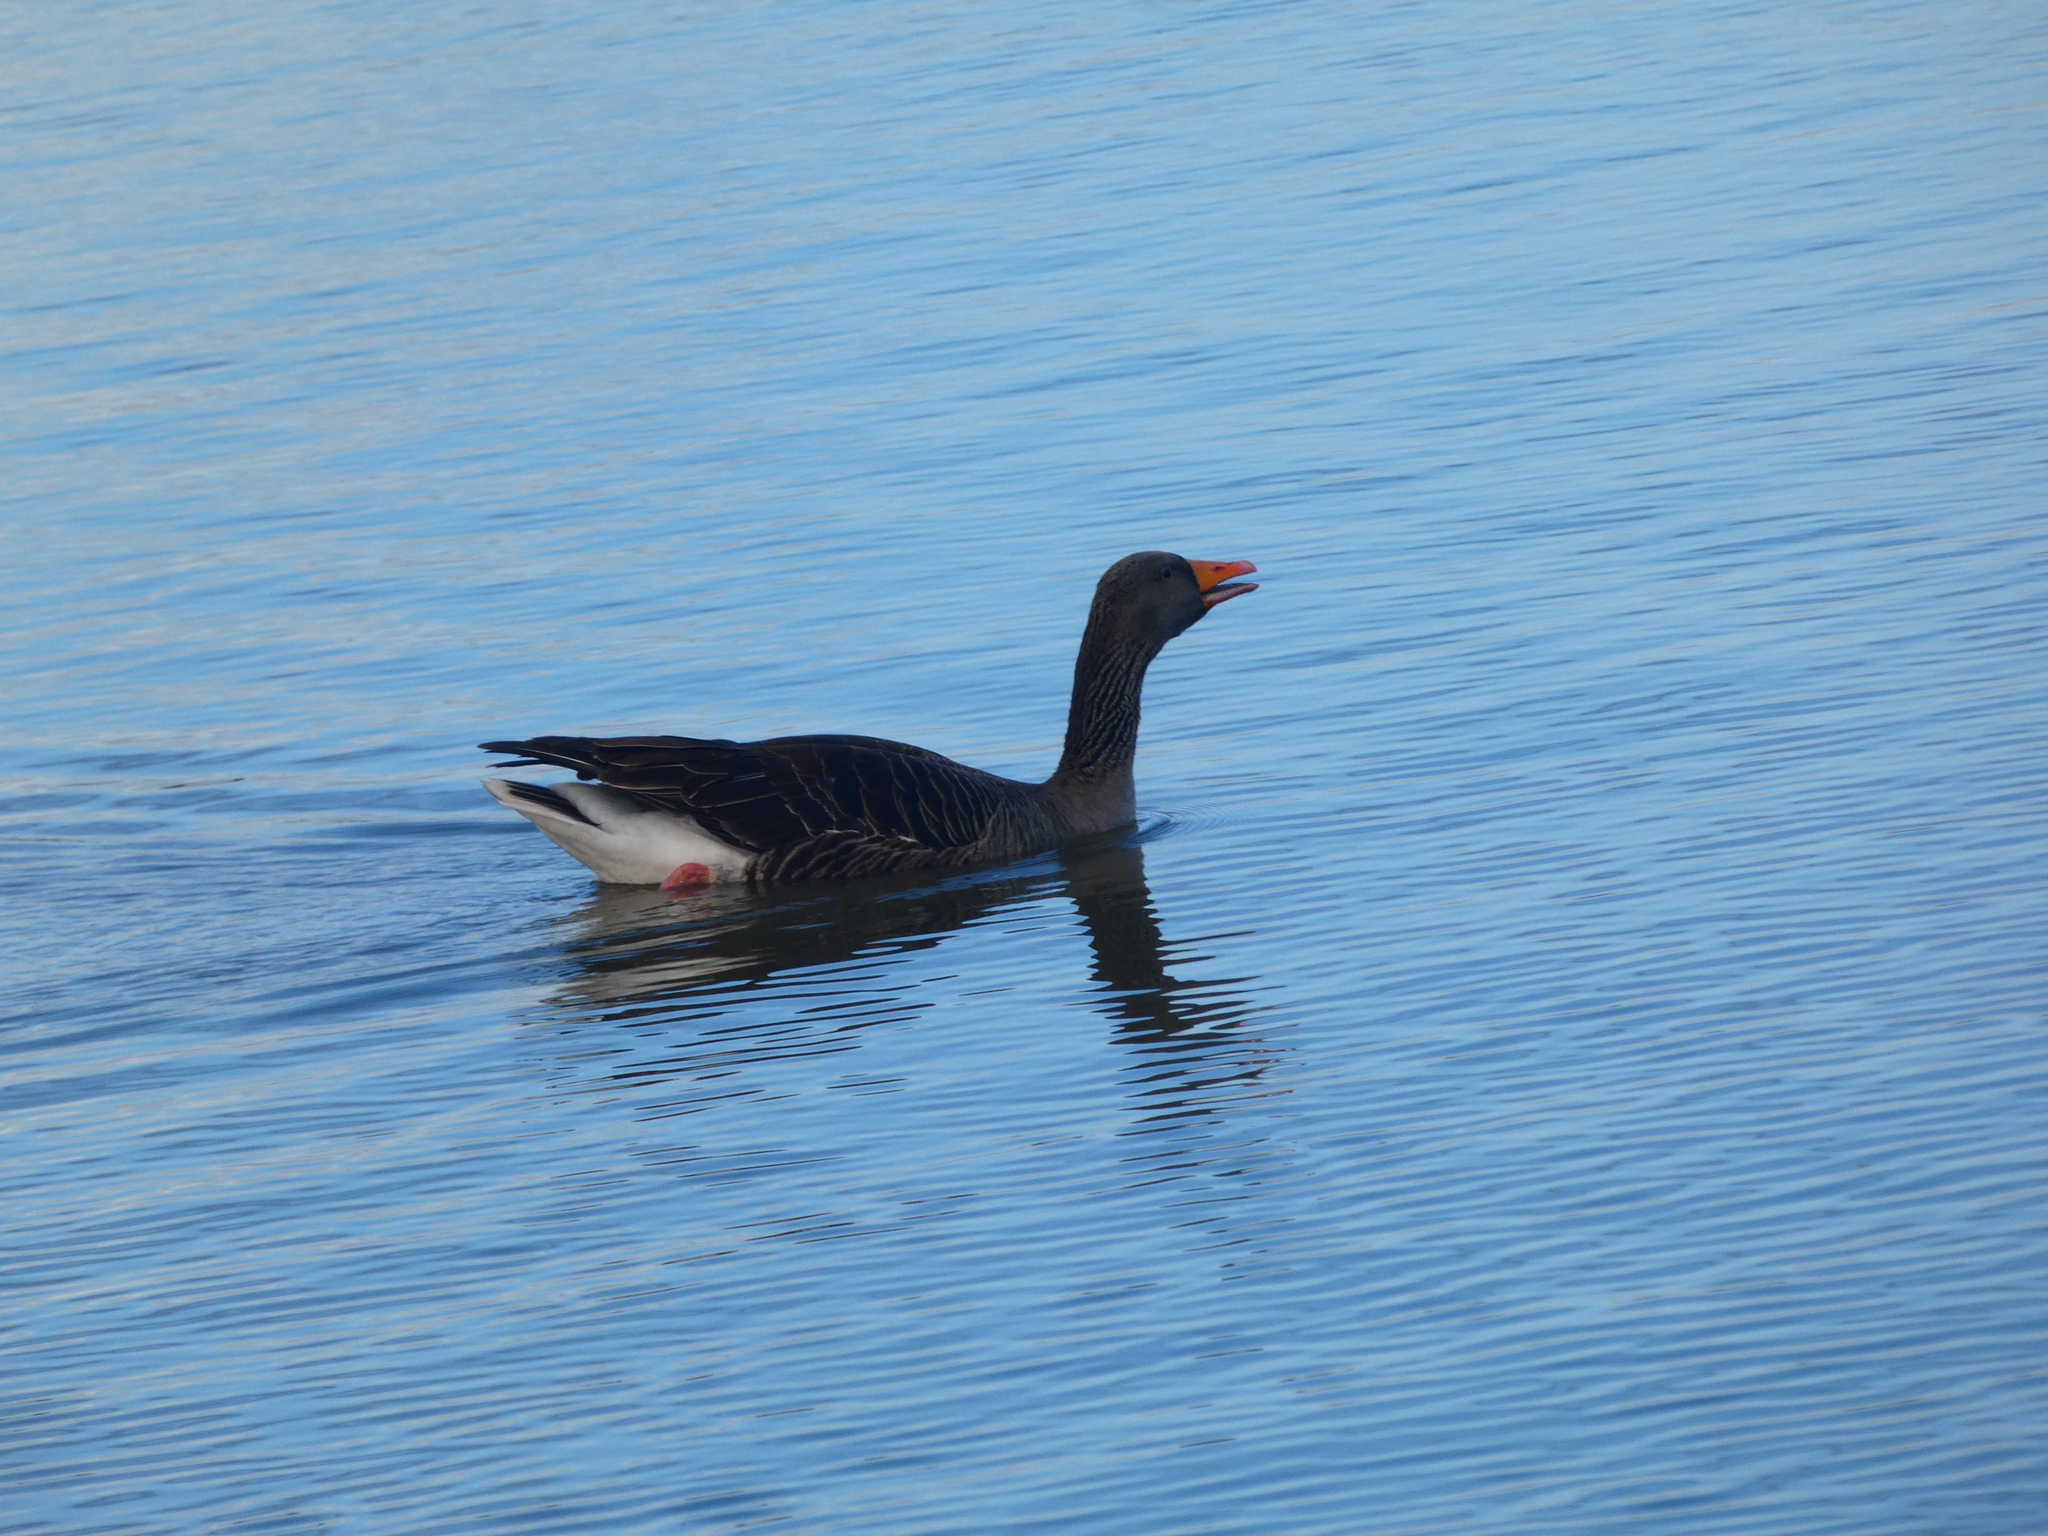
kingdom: Animalia
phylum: Chordata
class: Aves
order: Anseriformes
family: Anatidae
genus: Anser
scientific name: Anser anser
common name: Greylag goose
